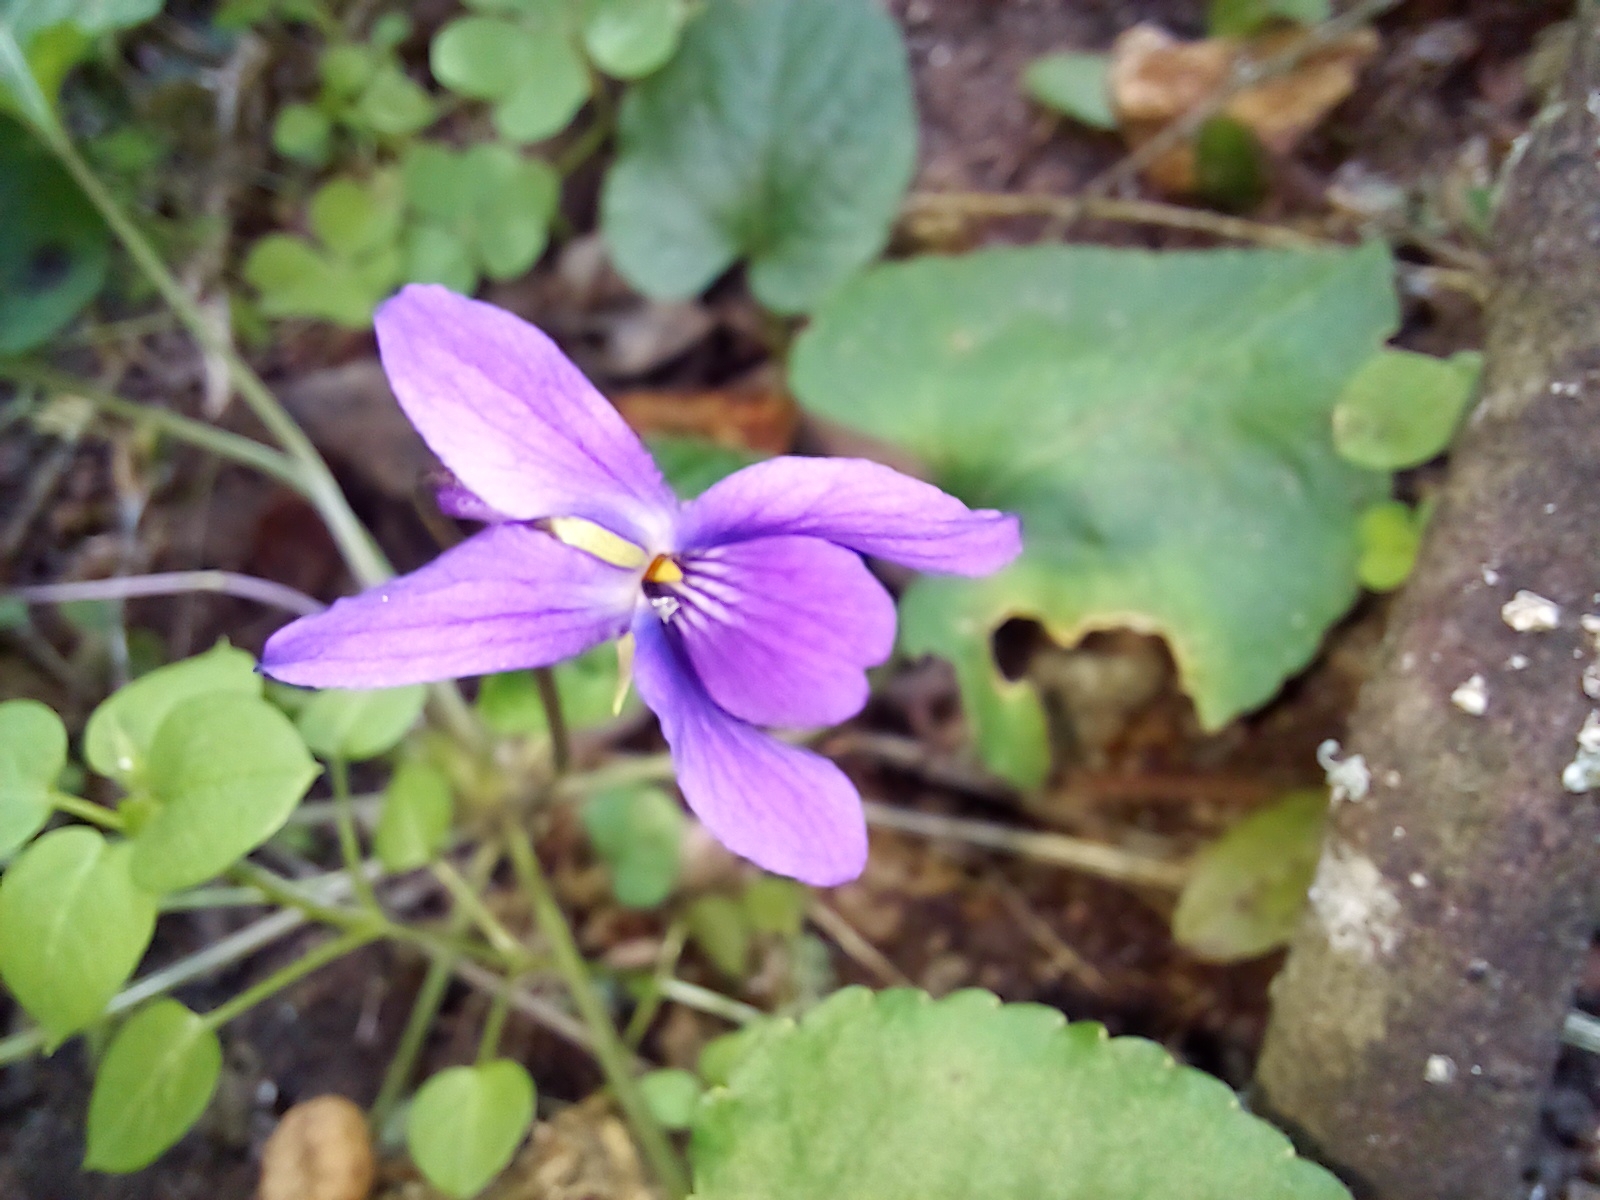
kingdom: Plantae
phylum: Tracheophyta
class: Magnoliopsida
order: Malpighiales
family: Violaceae
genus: Viola
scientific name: Viola odorata
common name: Sweet violet
